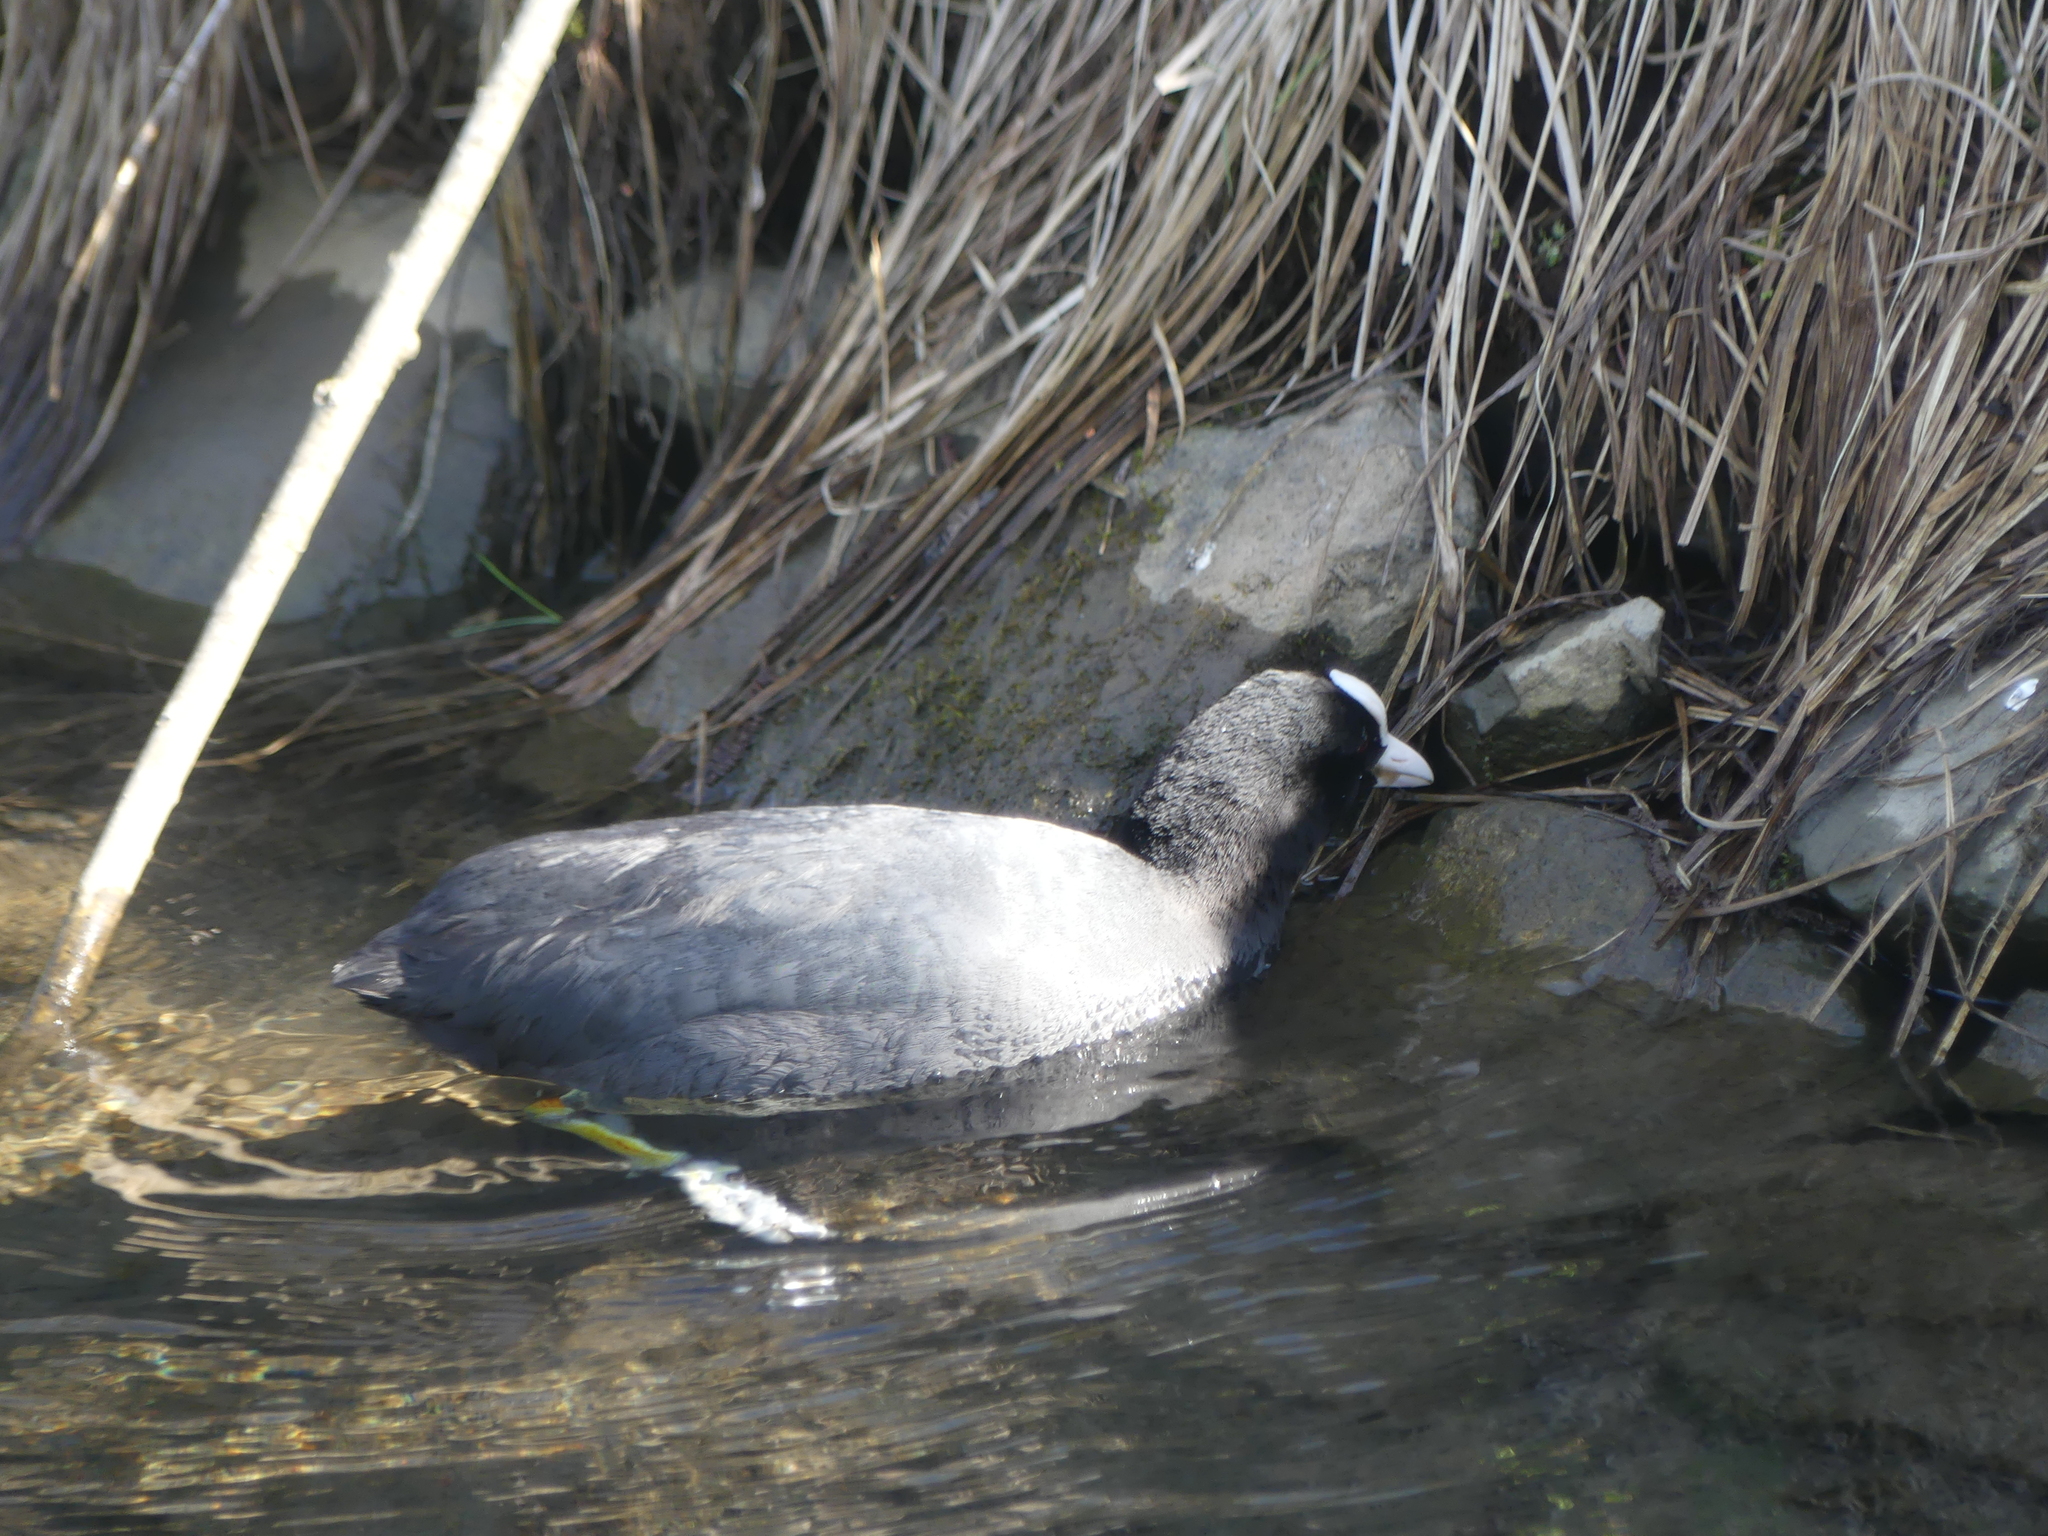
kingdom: Animalia
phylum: Chordata
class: Aves
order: Gruiformes
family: Rallidae
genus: Fulica
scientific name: Fulica atra
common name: Eurasian coot
